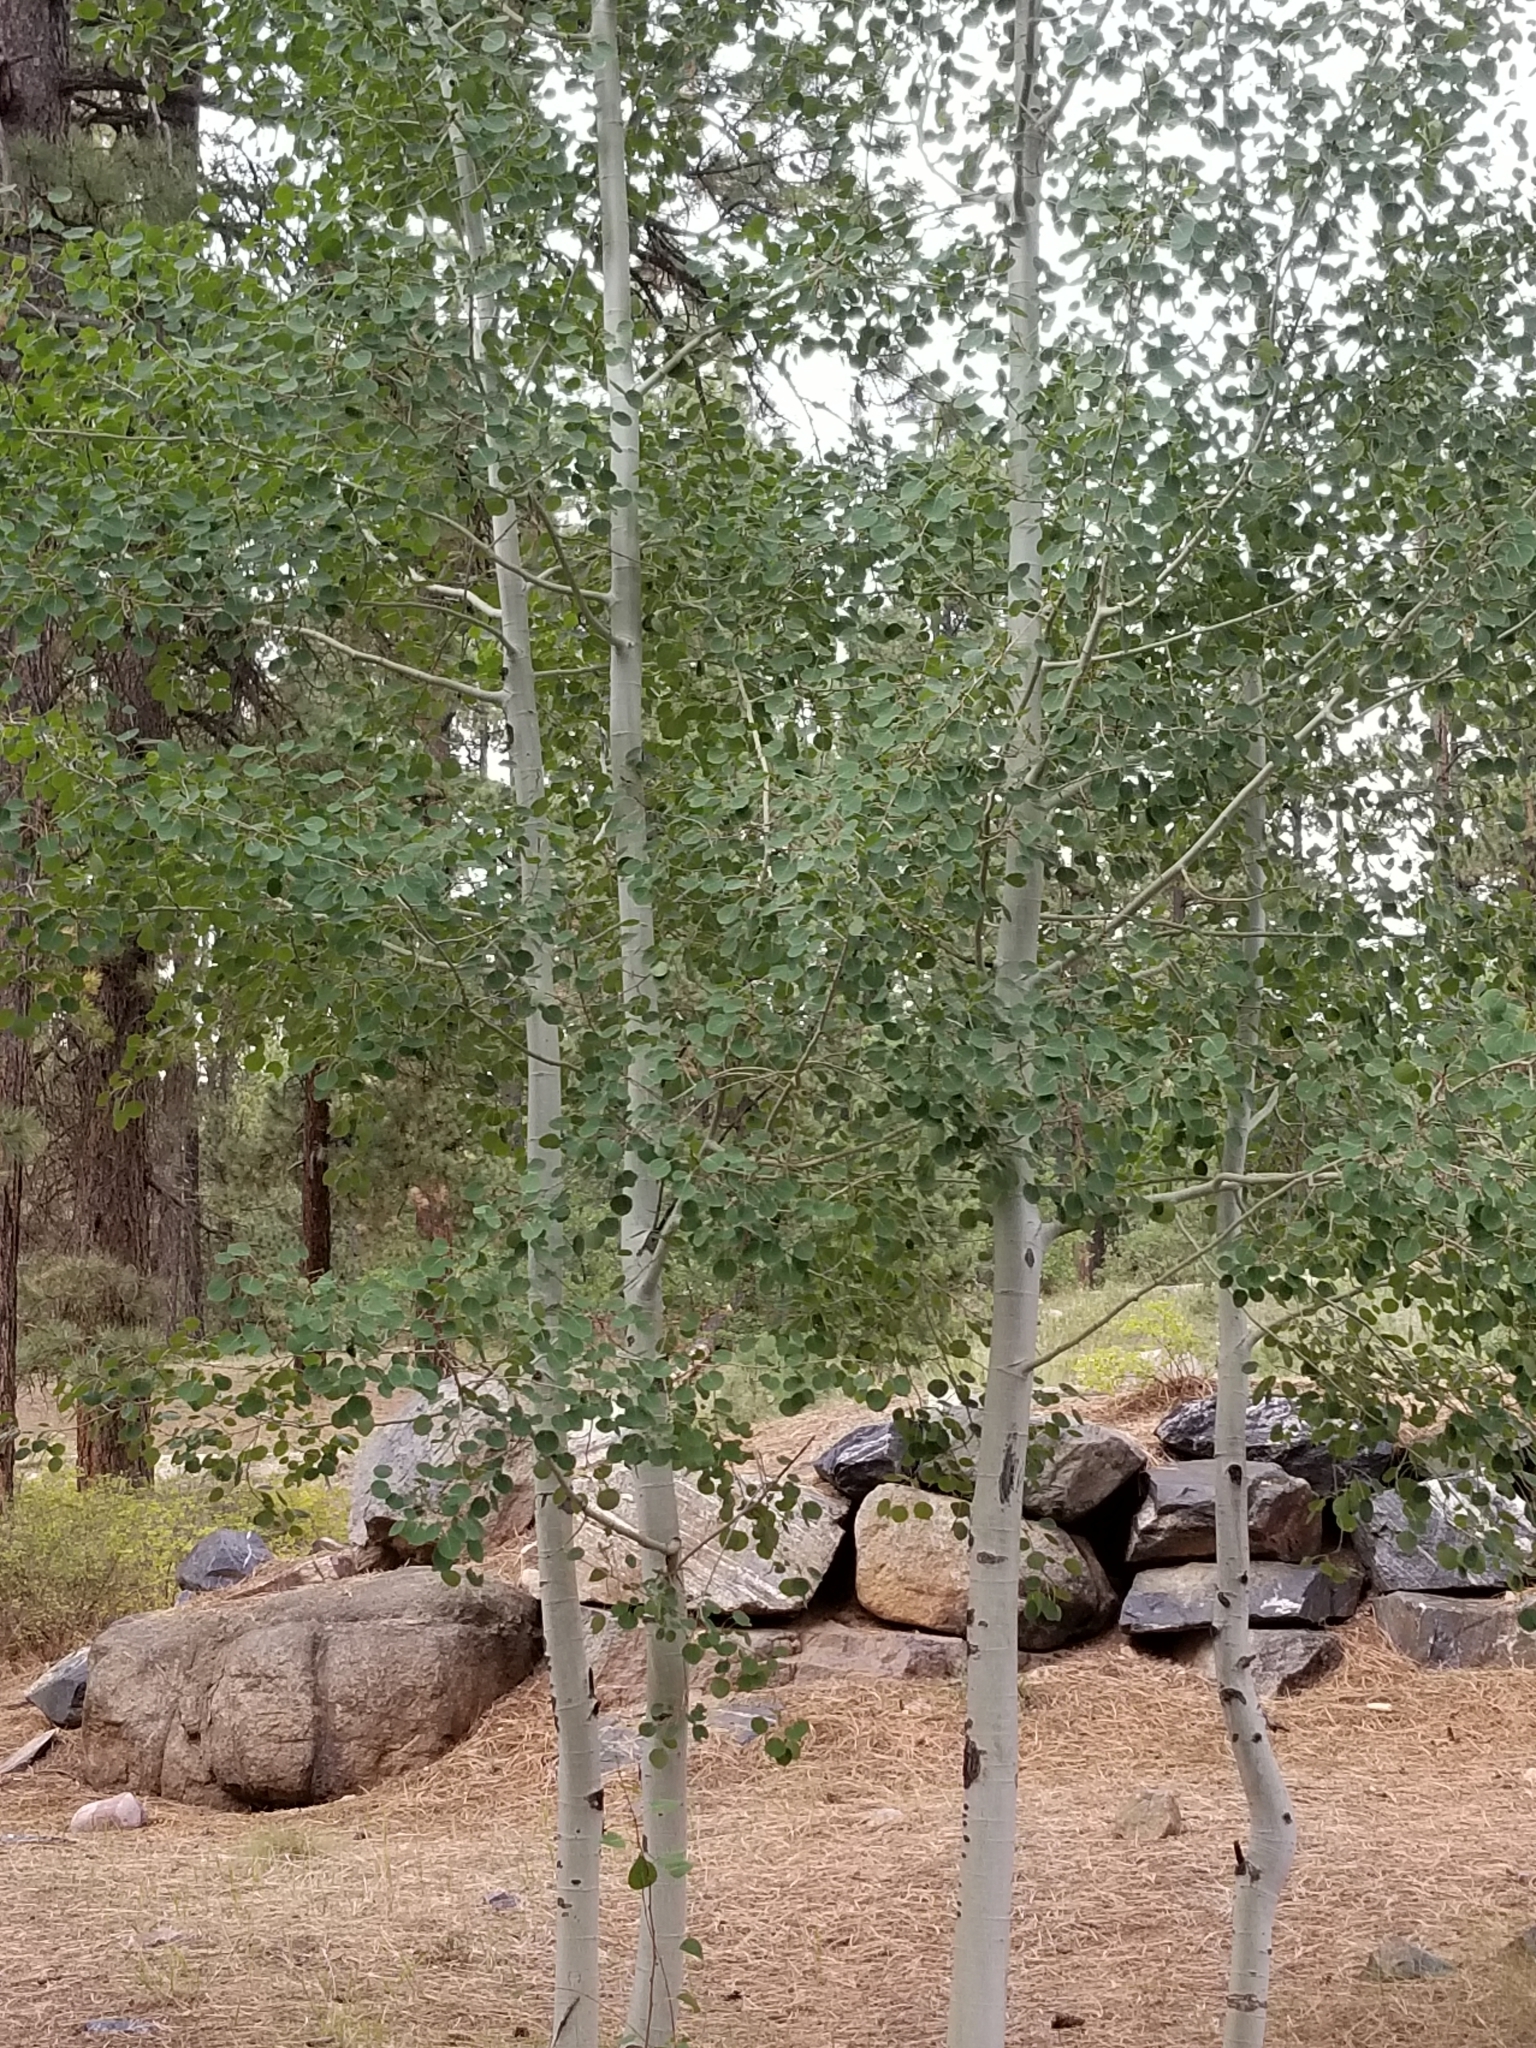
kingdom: Plantae
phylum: Tracheophyta
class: Magnoliopsida
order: Malpighiales
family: Salicaceae
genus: Populus
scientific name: Populus tremuloides
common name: Quaking aspen
